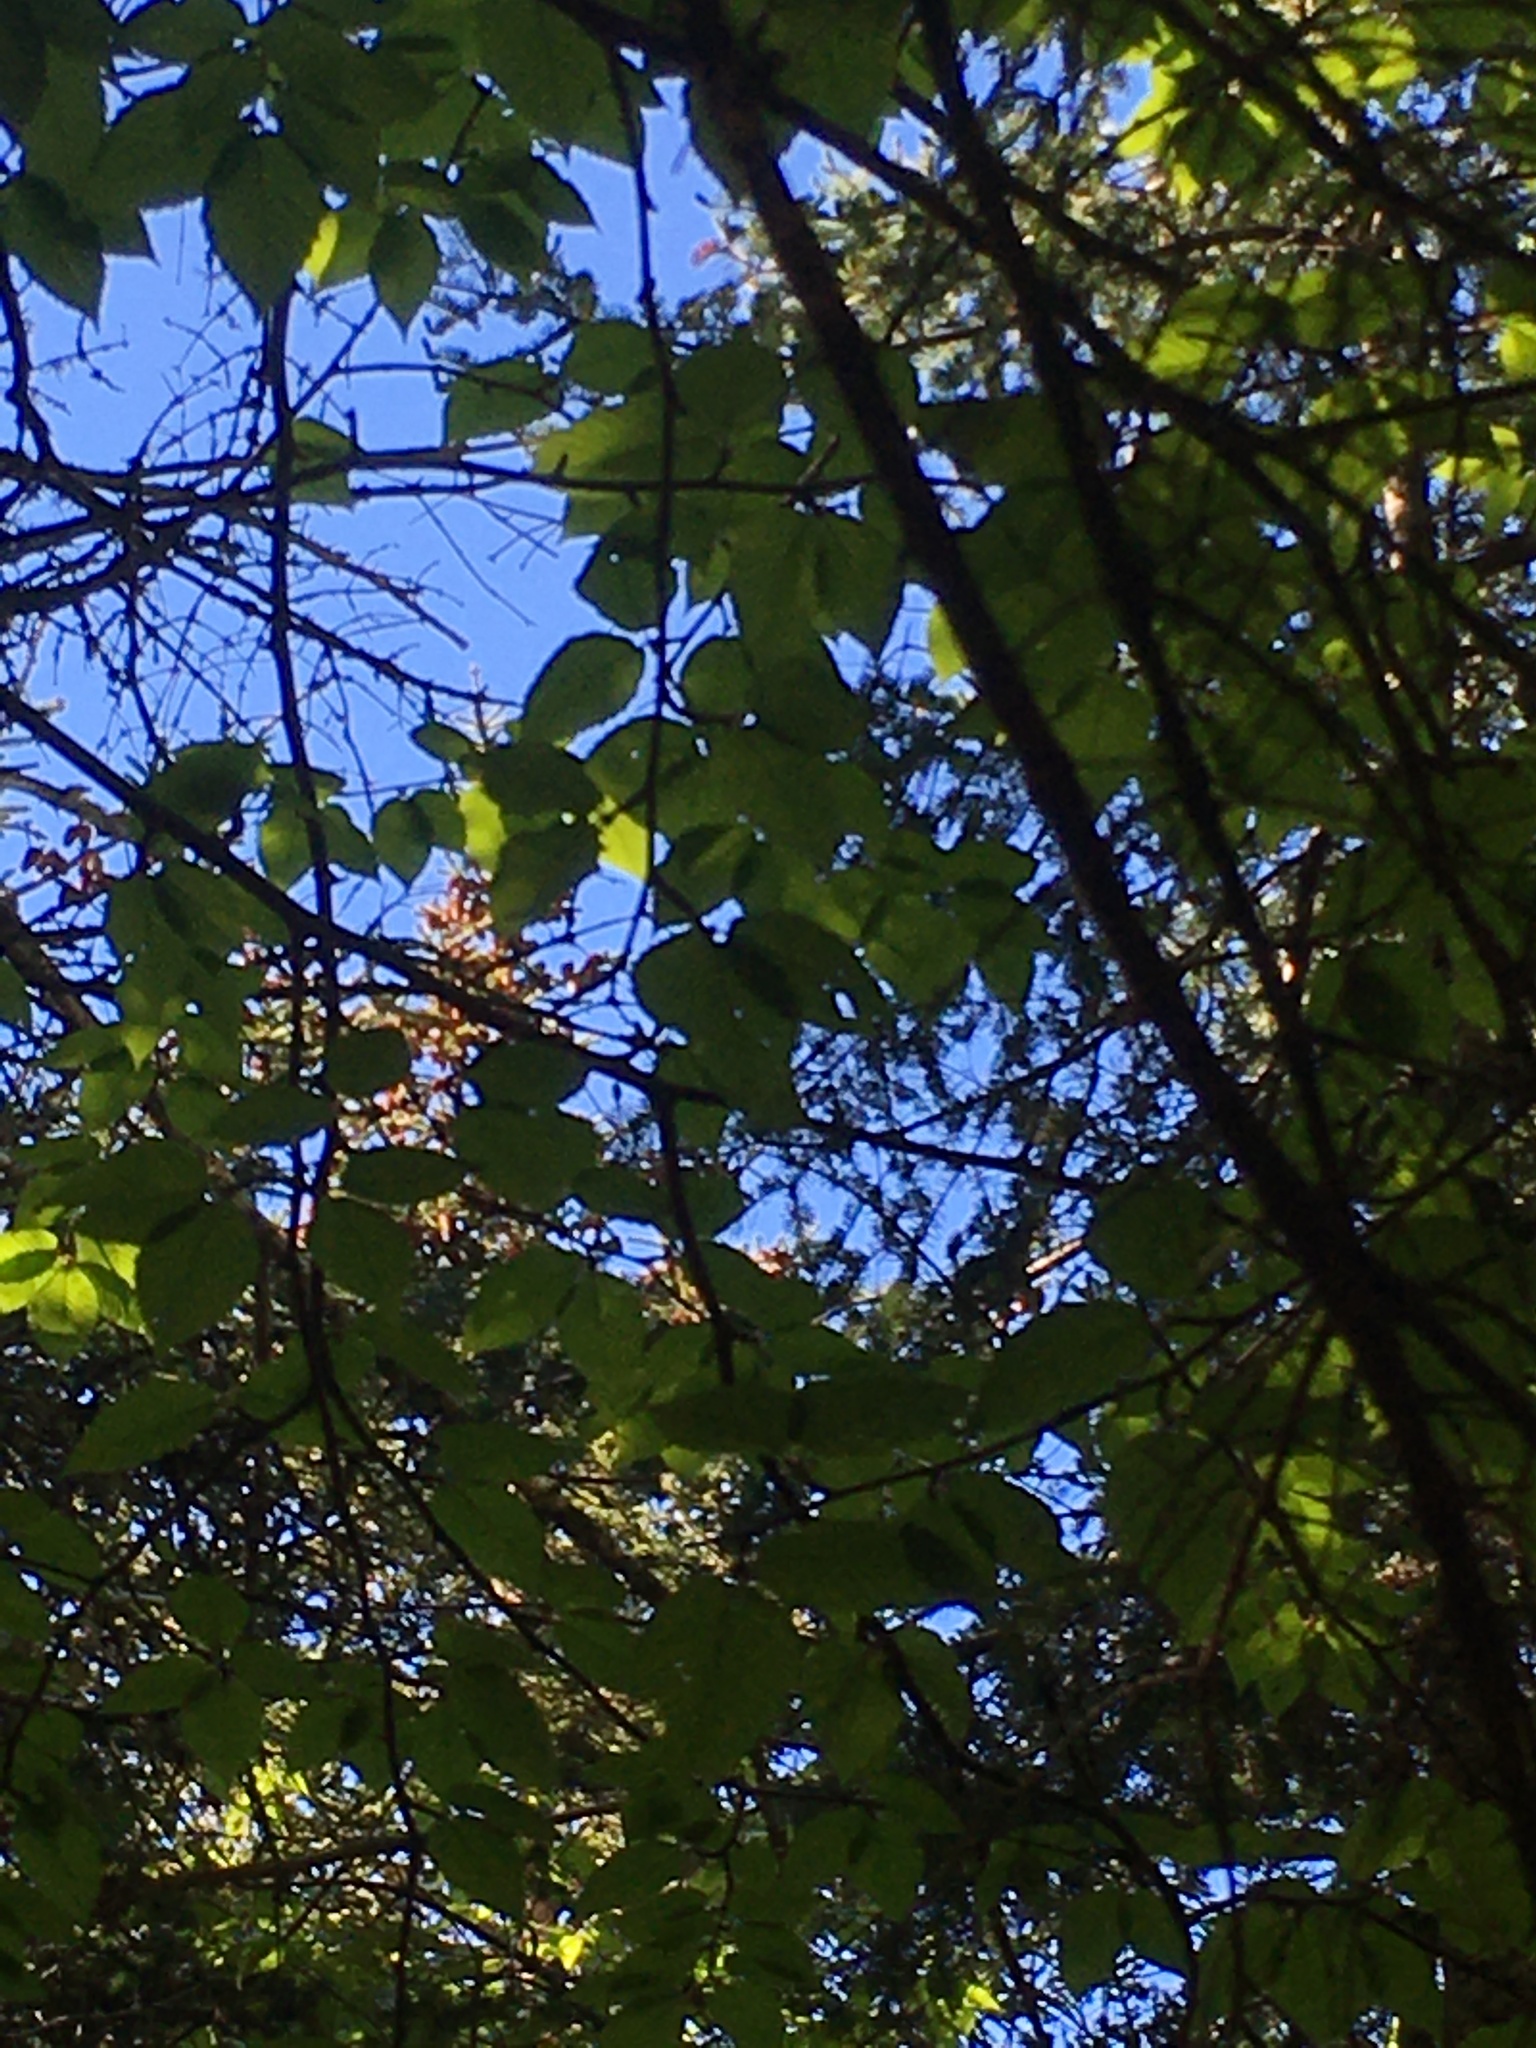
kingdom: Plantae
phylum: Tracheophyta
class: Magnoliopsida
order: Fagales
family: Betulaceae
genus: Betula
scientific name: Betula papyrifera
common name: Paper birch
